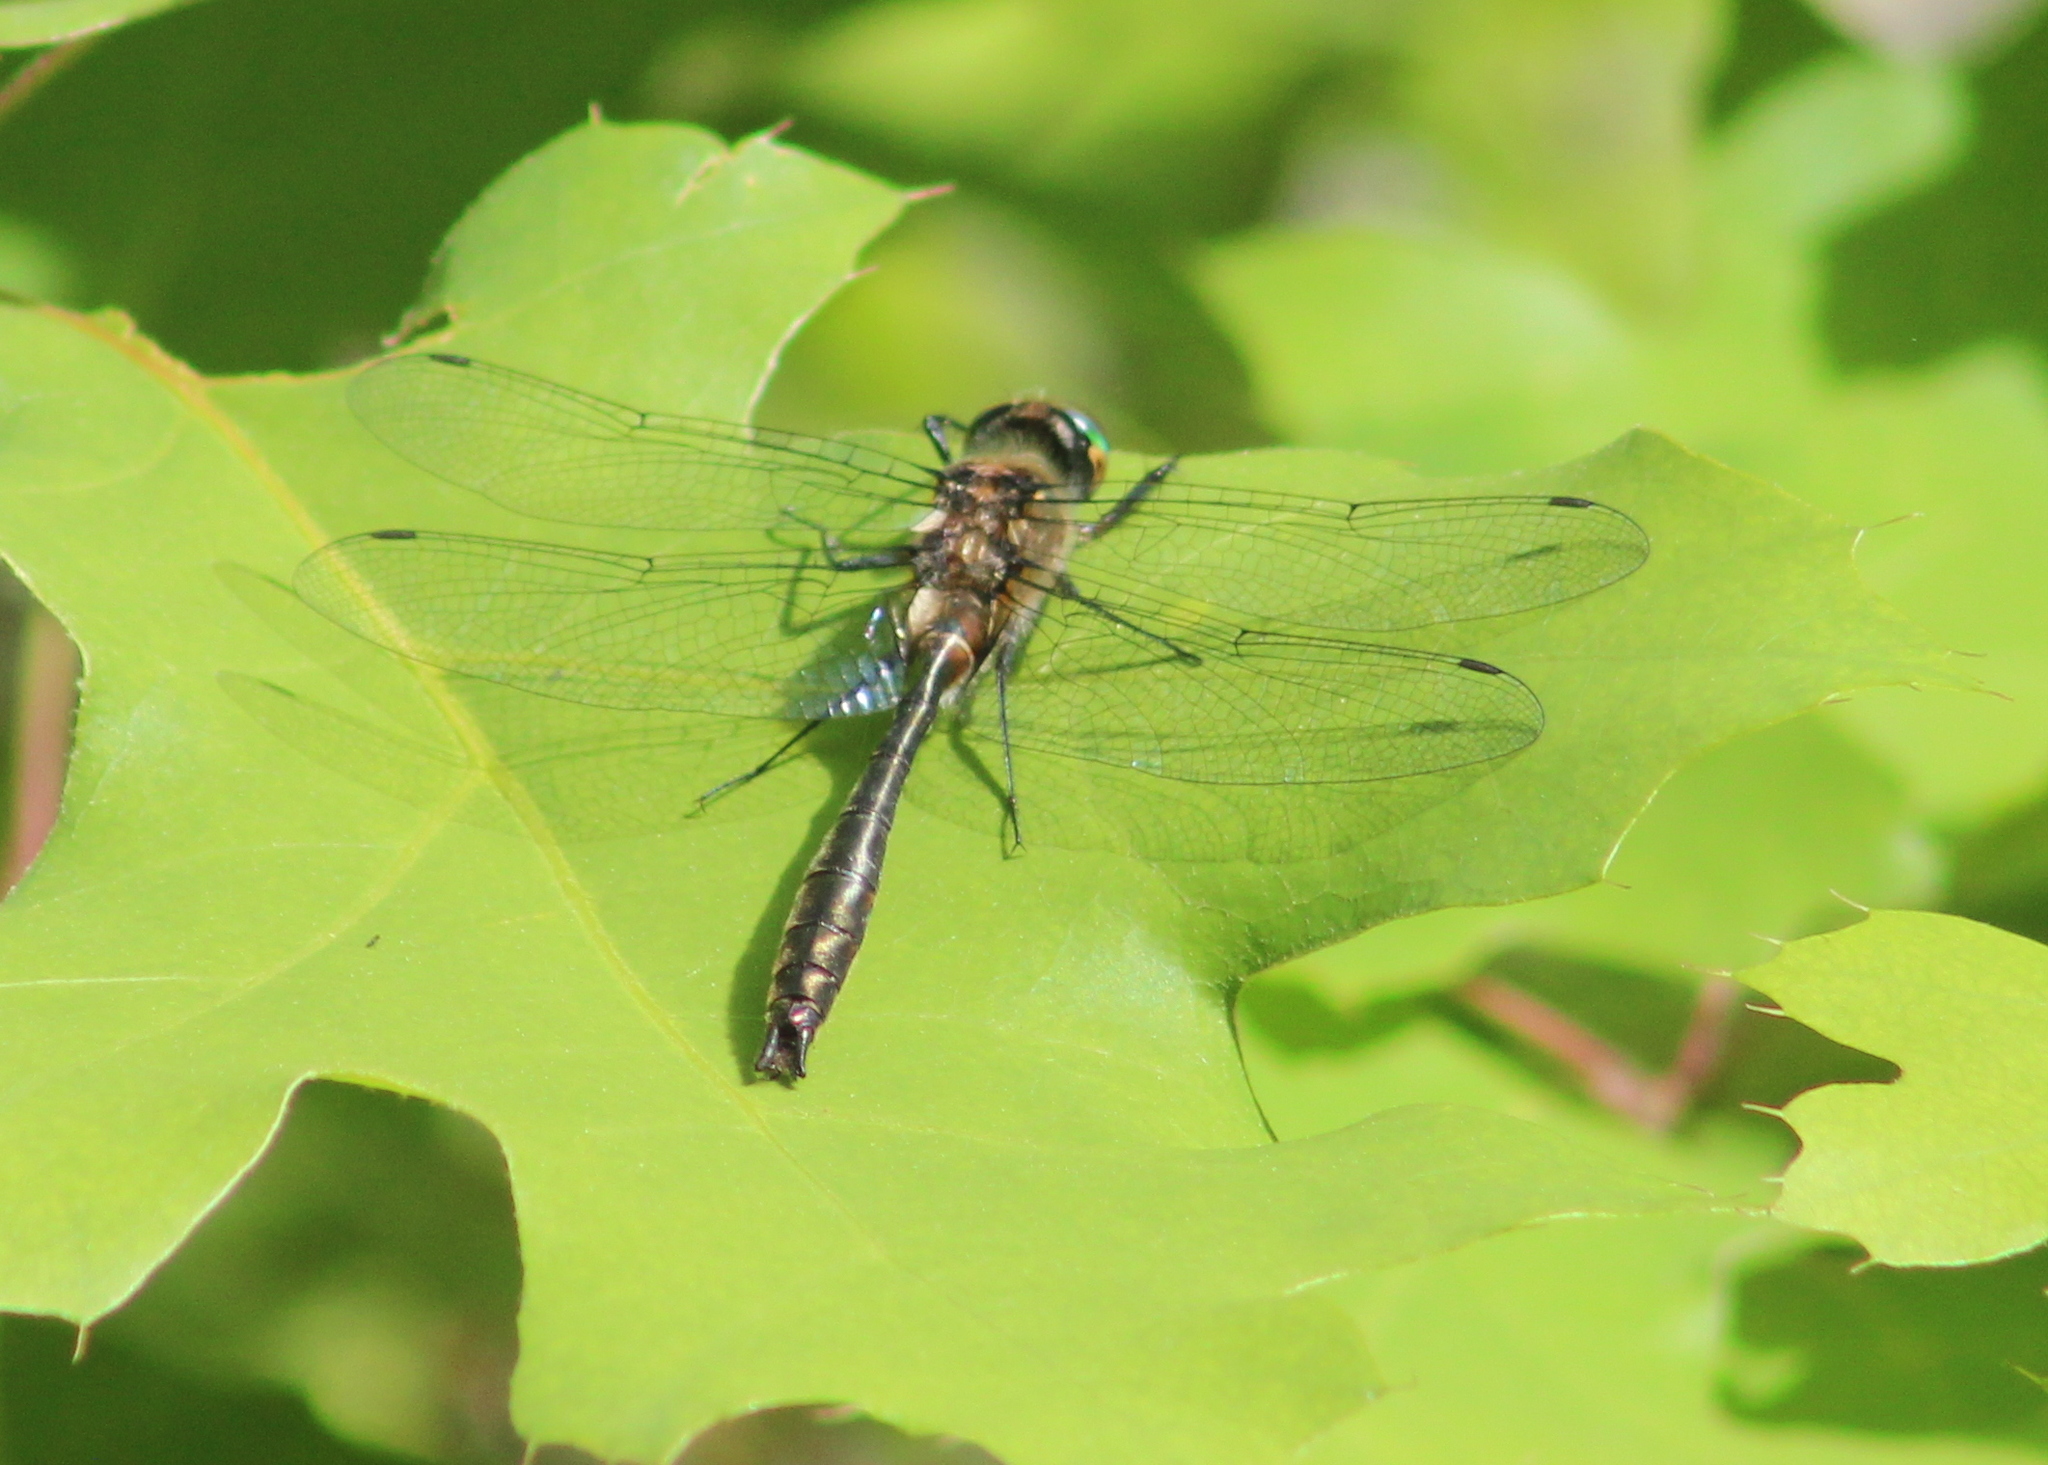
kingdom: Animalia
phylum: Arthropoda
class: Insecta
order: Odonata
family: Corduliidae
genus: Cordulia
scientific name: Cordulia shurtleffii
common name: American emerald
